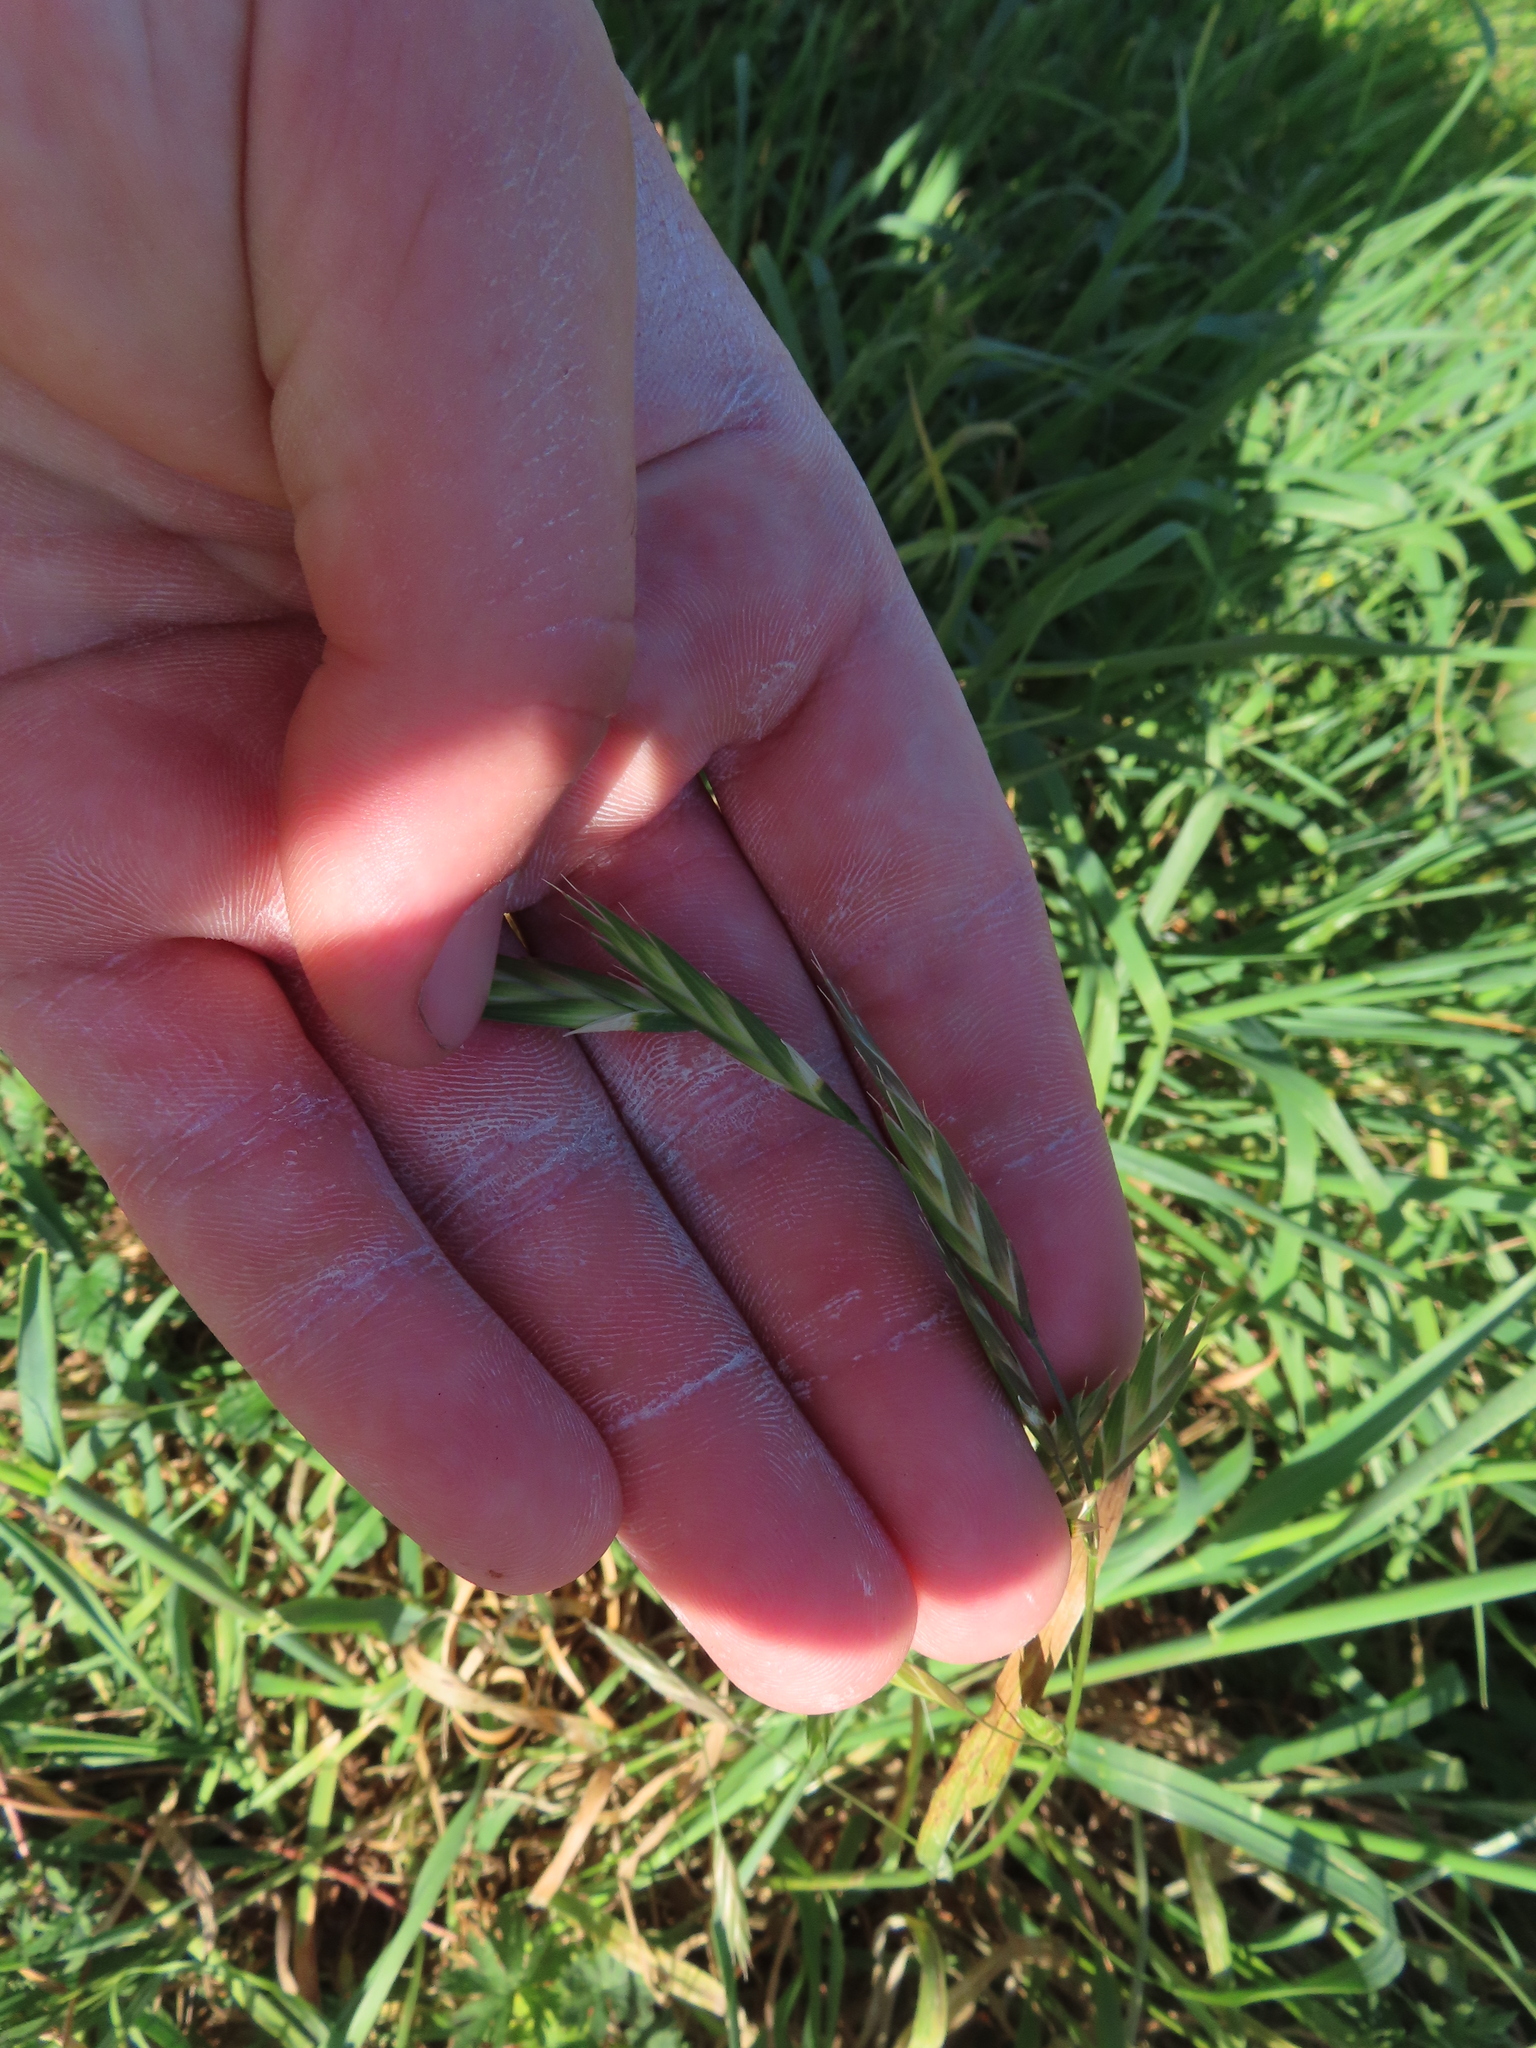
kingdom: Plantae
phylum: Tracheophyta
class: Liliopsida
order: Poales
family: Poaceae
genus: Bromus
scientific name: Bromus catharticus
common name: Rescuegrass
